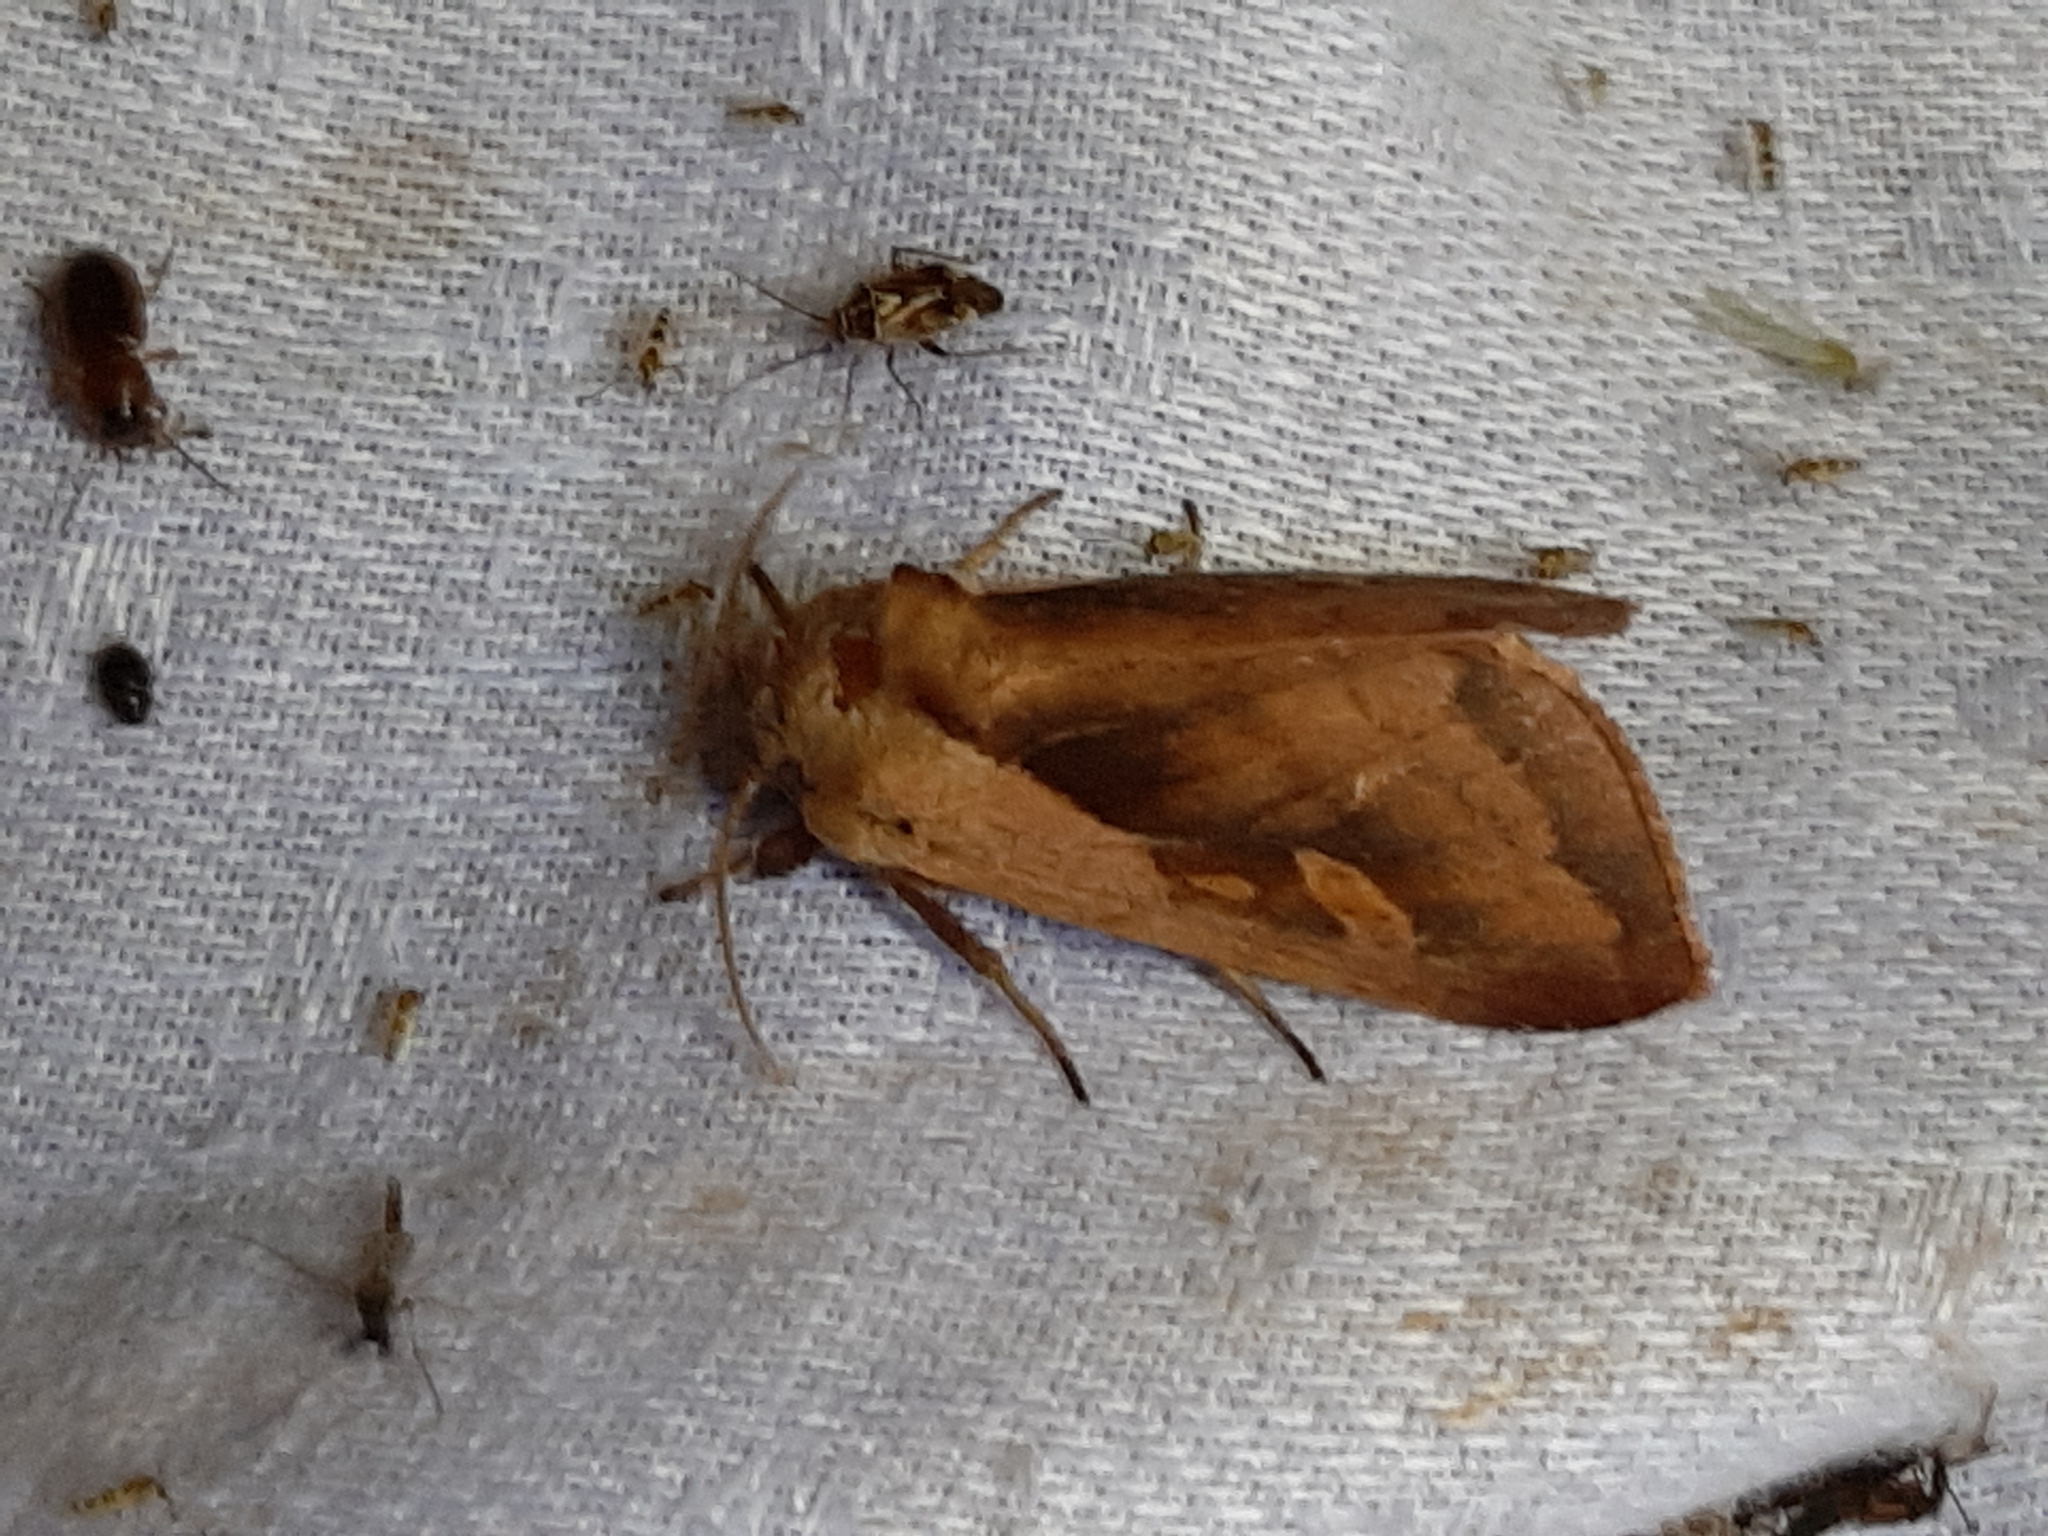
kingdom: Animalia
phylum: Arthropoda
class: Insecta
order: Lepidoptera
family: Noctuidae
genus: Bellura
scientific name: Bellura obliqua
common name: Cattail borer moth
